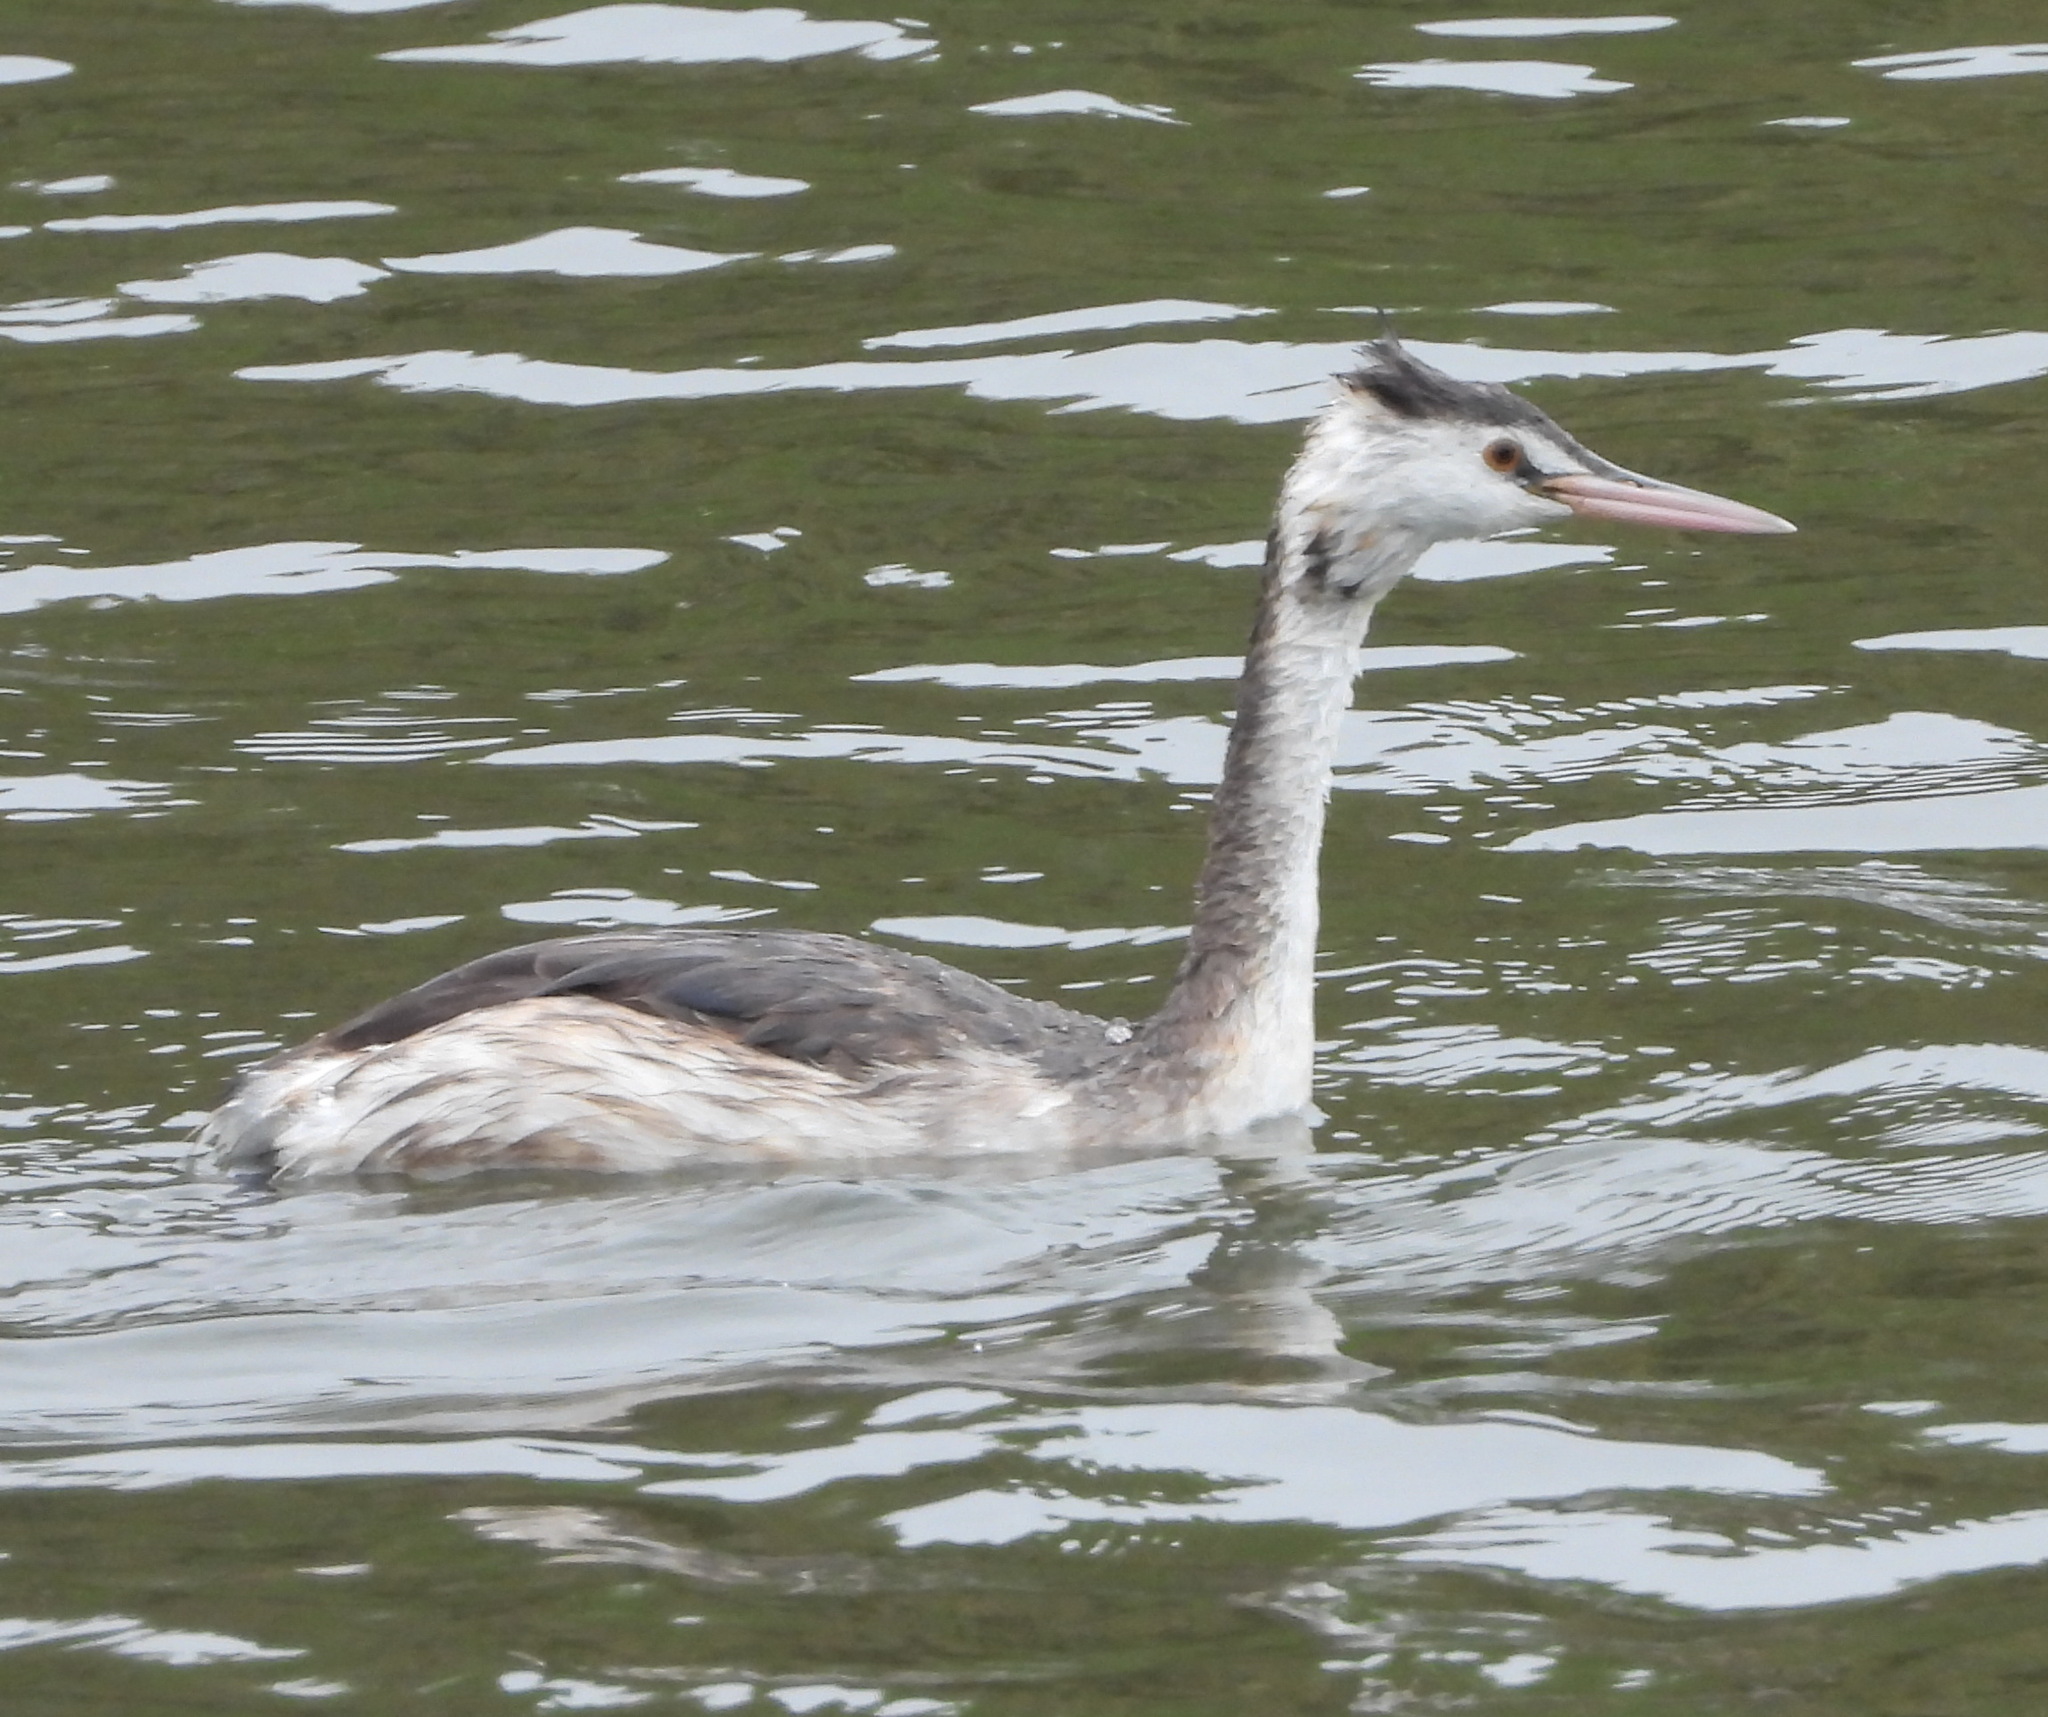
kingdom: Animalia
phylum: Chordata
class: Aves
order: Podicipediformes
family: Podicipedidae
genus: Podiceps
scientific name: Podiceps cristatus
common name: Great crested grebe
